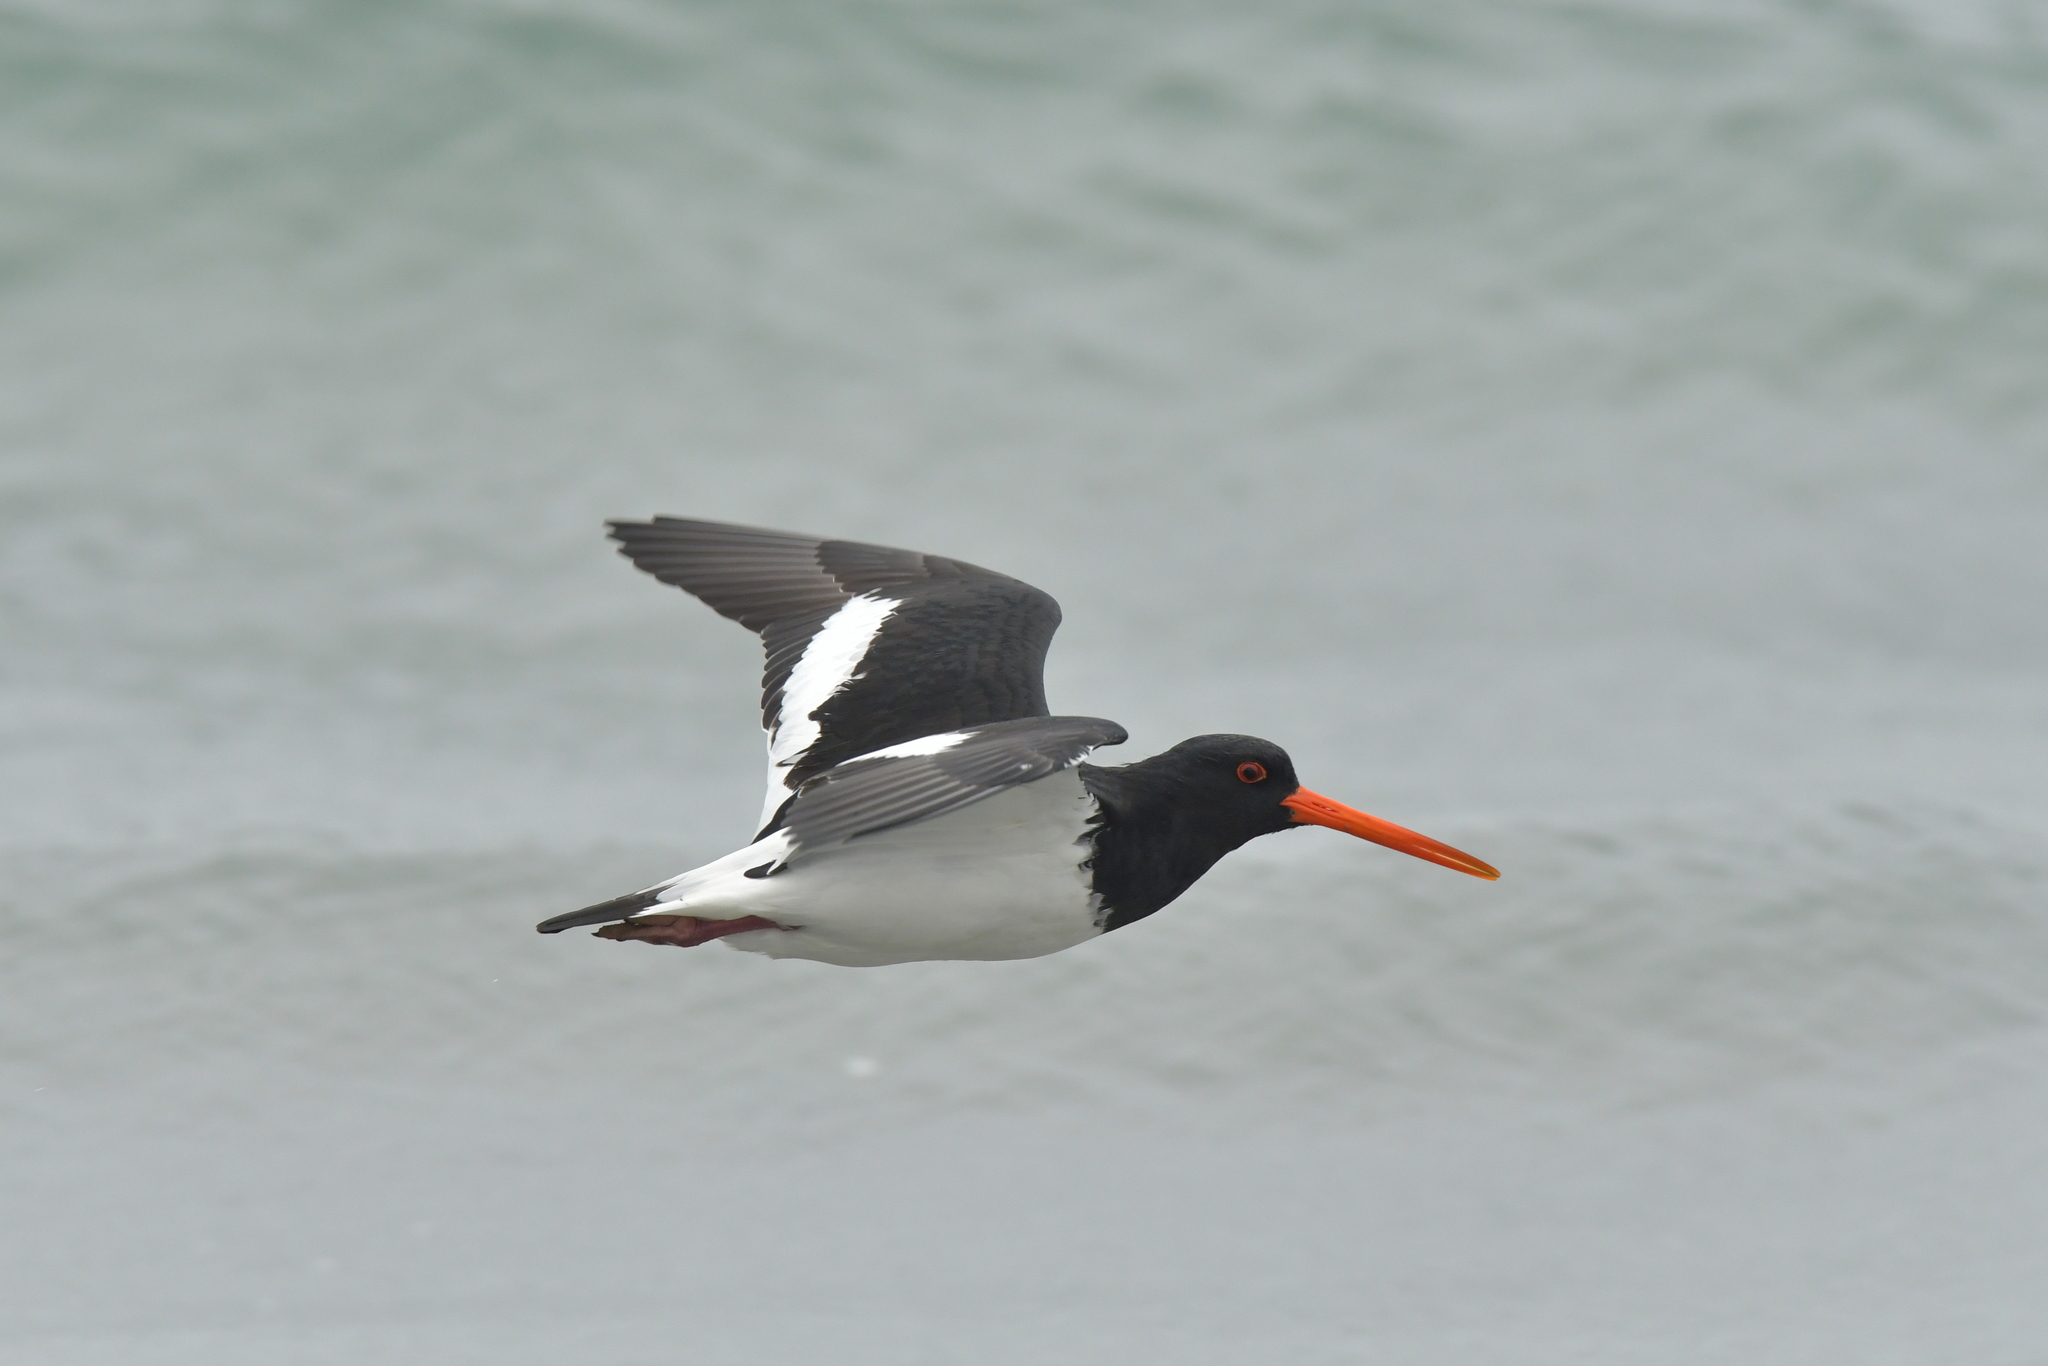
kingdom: Animalia
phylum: Chordata
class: Aves
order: Charadriiformes
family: Haematopodidae
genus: Haematopus
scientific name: Haematopus finschi
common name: South island oystercatcher
